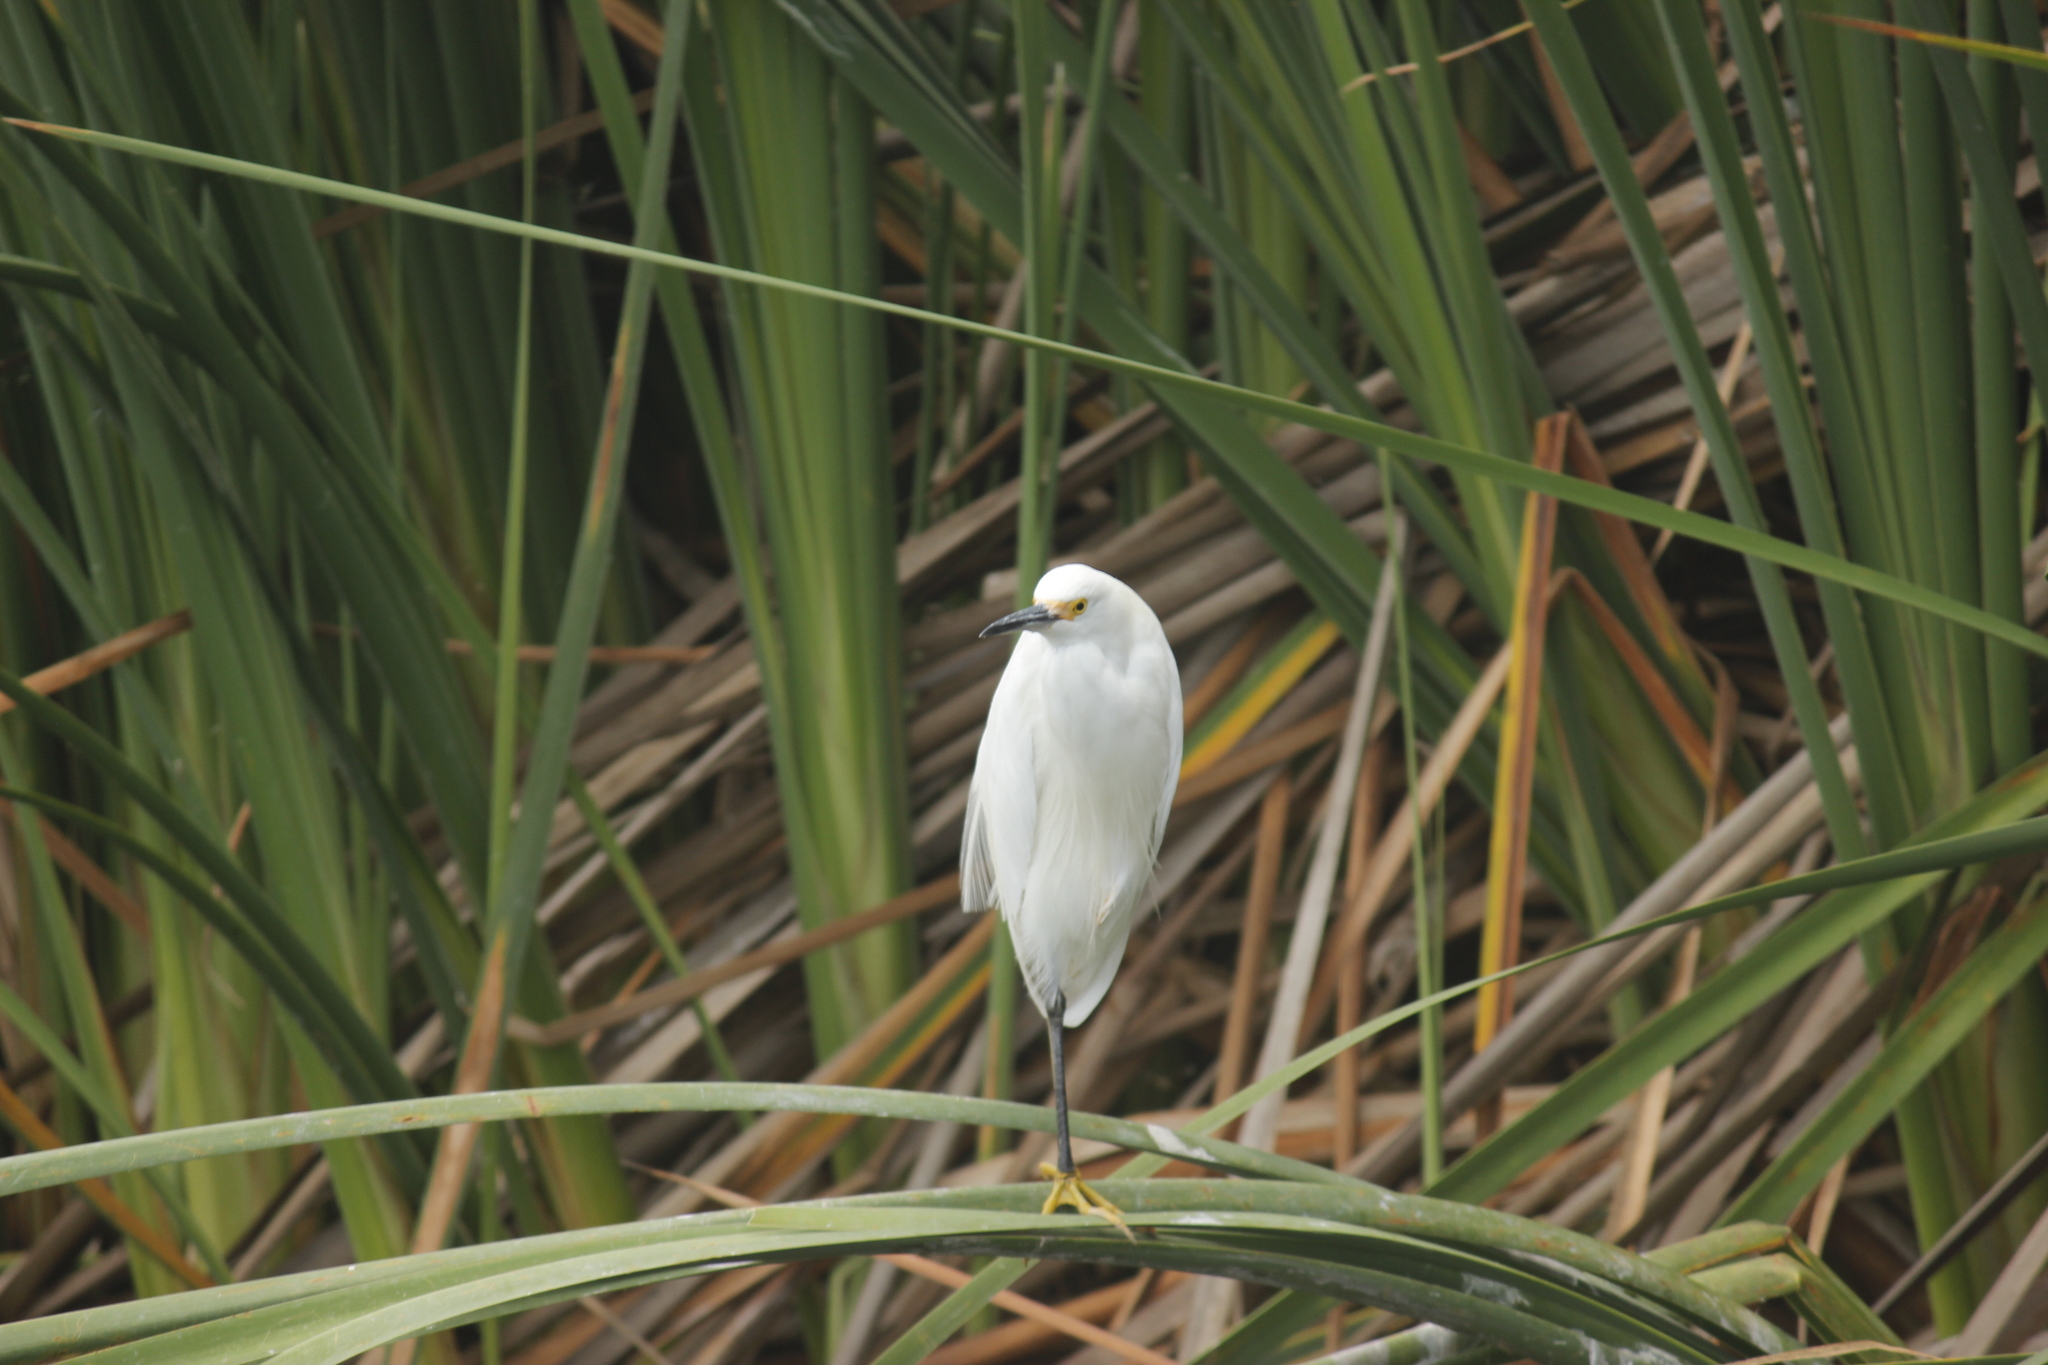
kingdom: Animalia
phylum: Chordata
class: Aves
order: Pelecaniformes
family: Ardeidae
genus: Egretta
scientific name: Egretta thula
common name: Snowy egret
